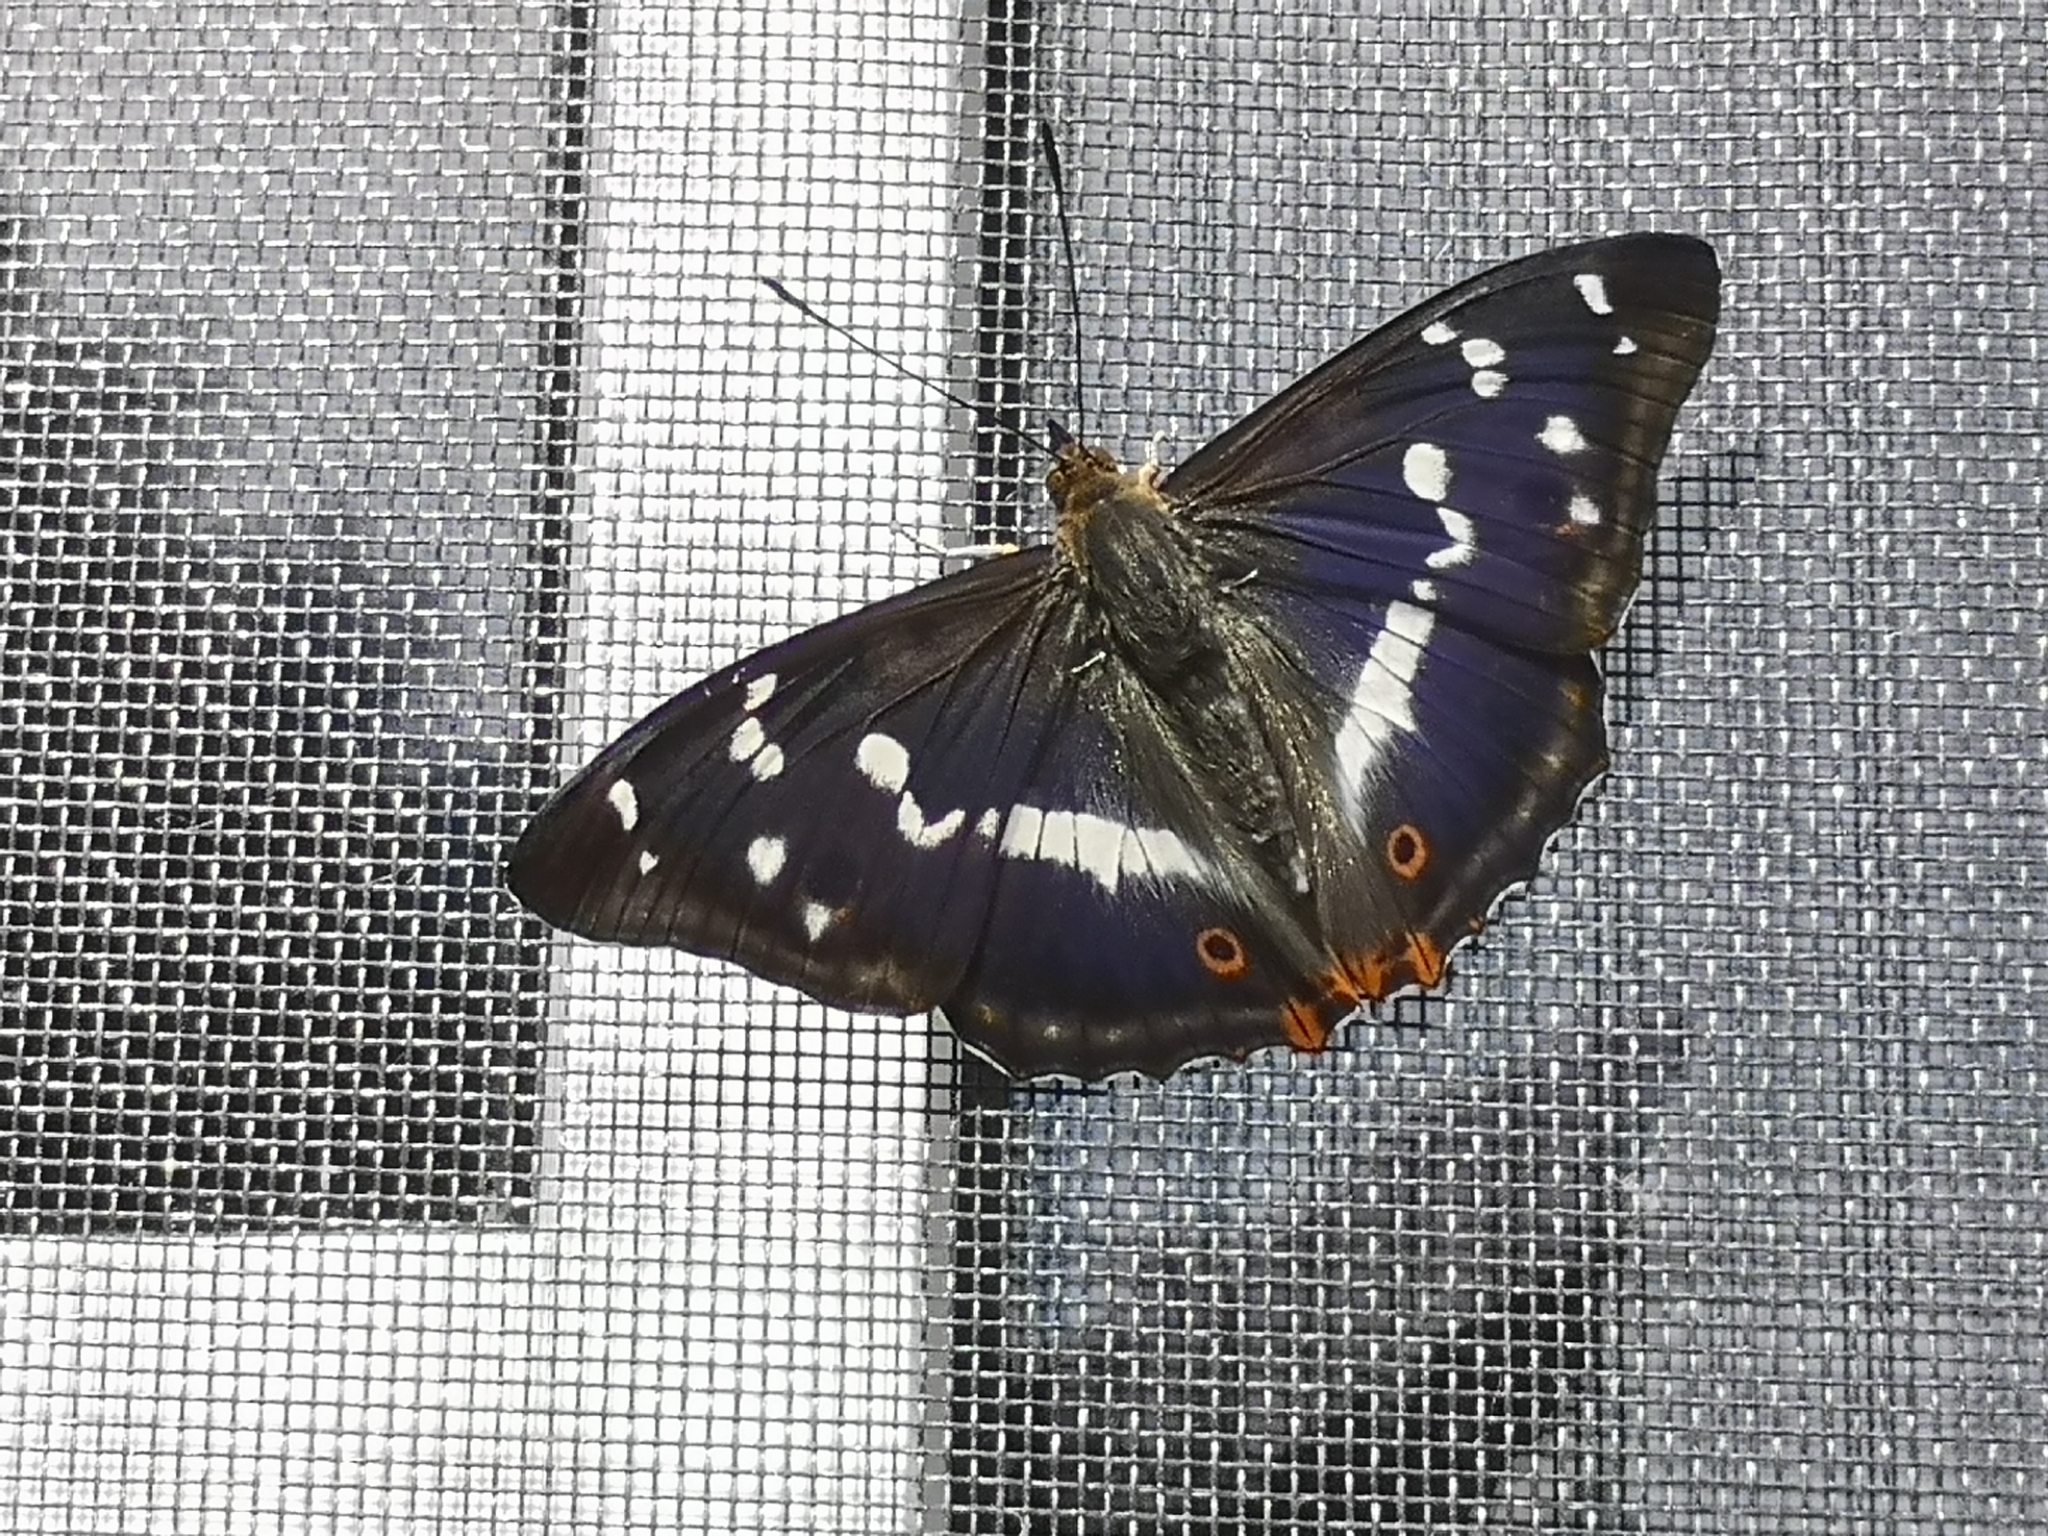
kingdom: Animalia
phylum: Arthropoda
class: Insecta
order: Lepidoptera
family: Nymphalidae
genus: Apatura
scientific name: Apatura iris
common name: Purple emperor
